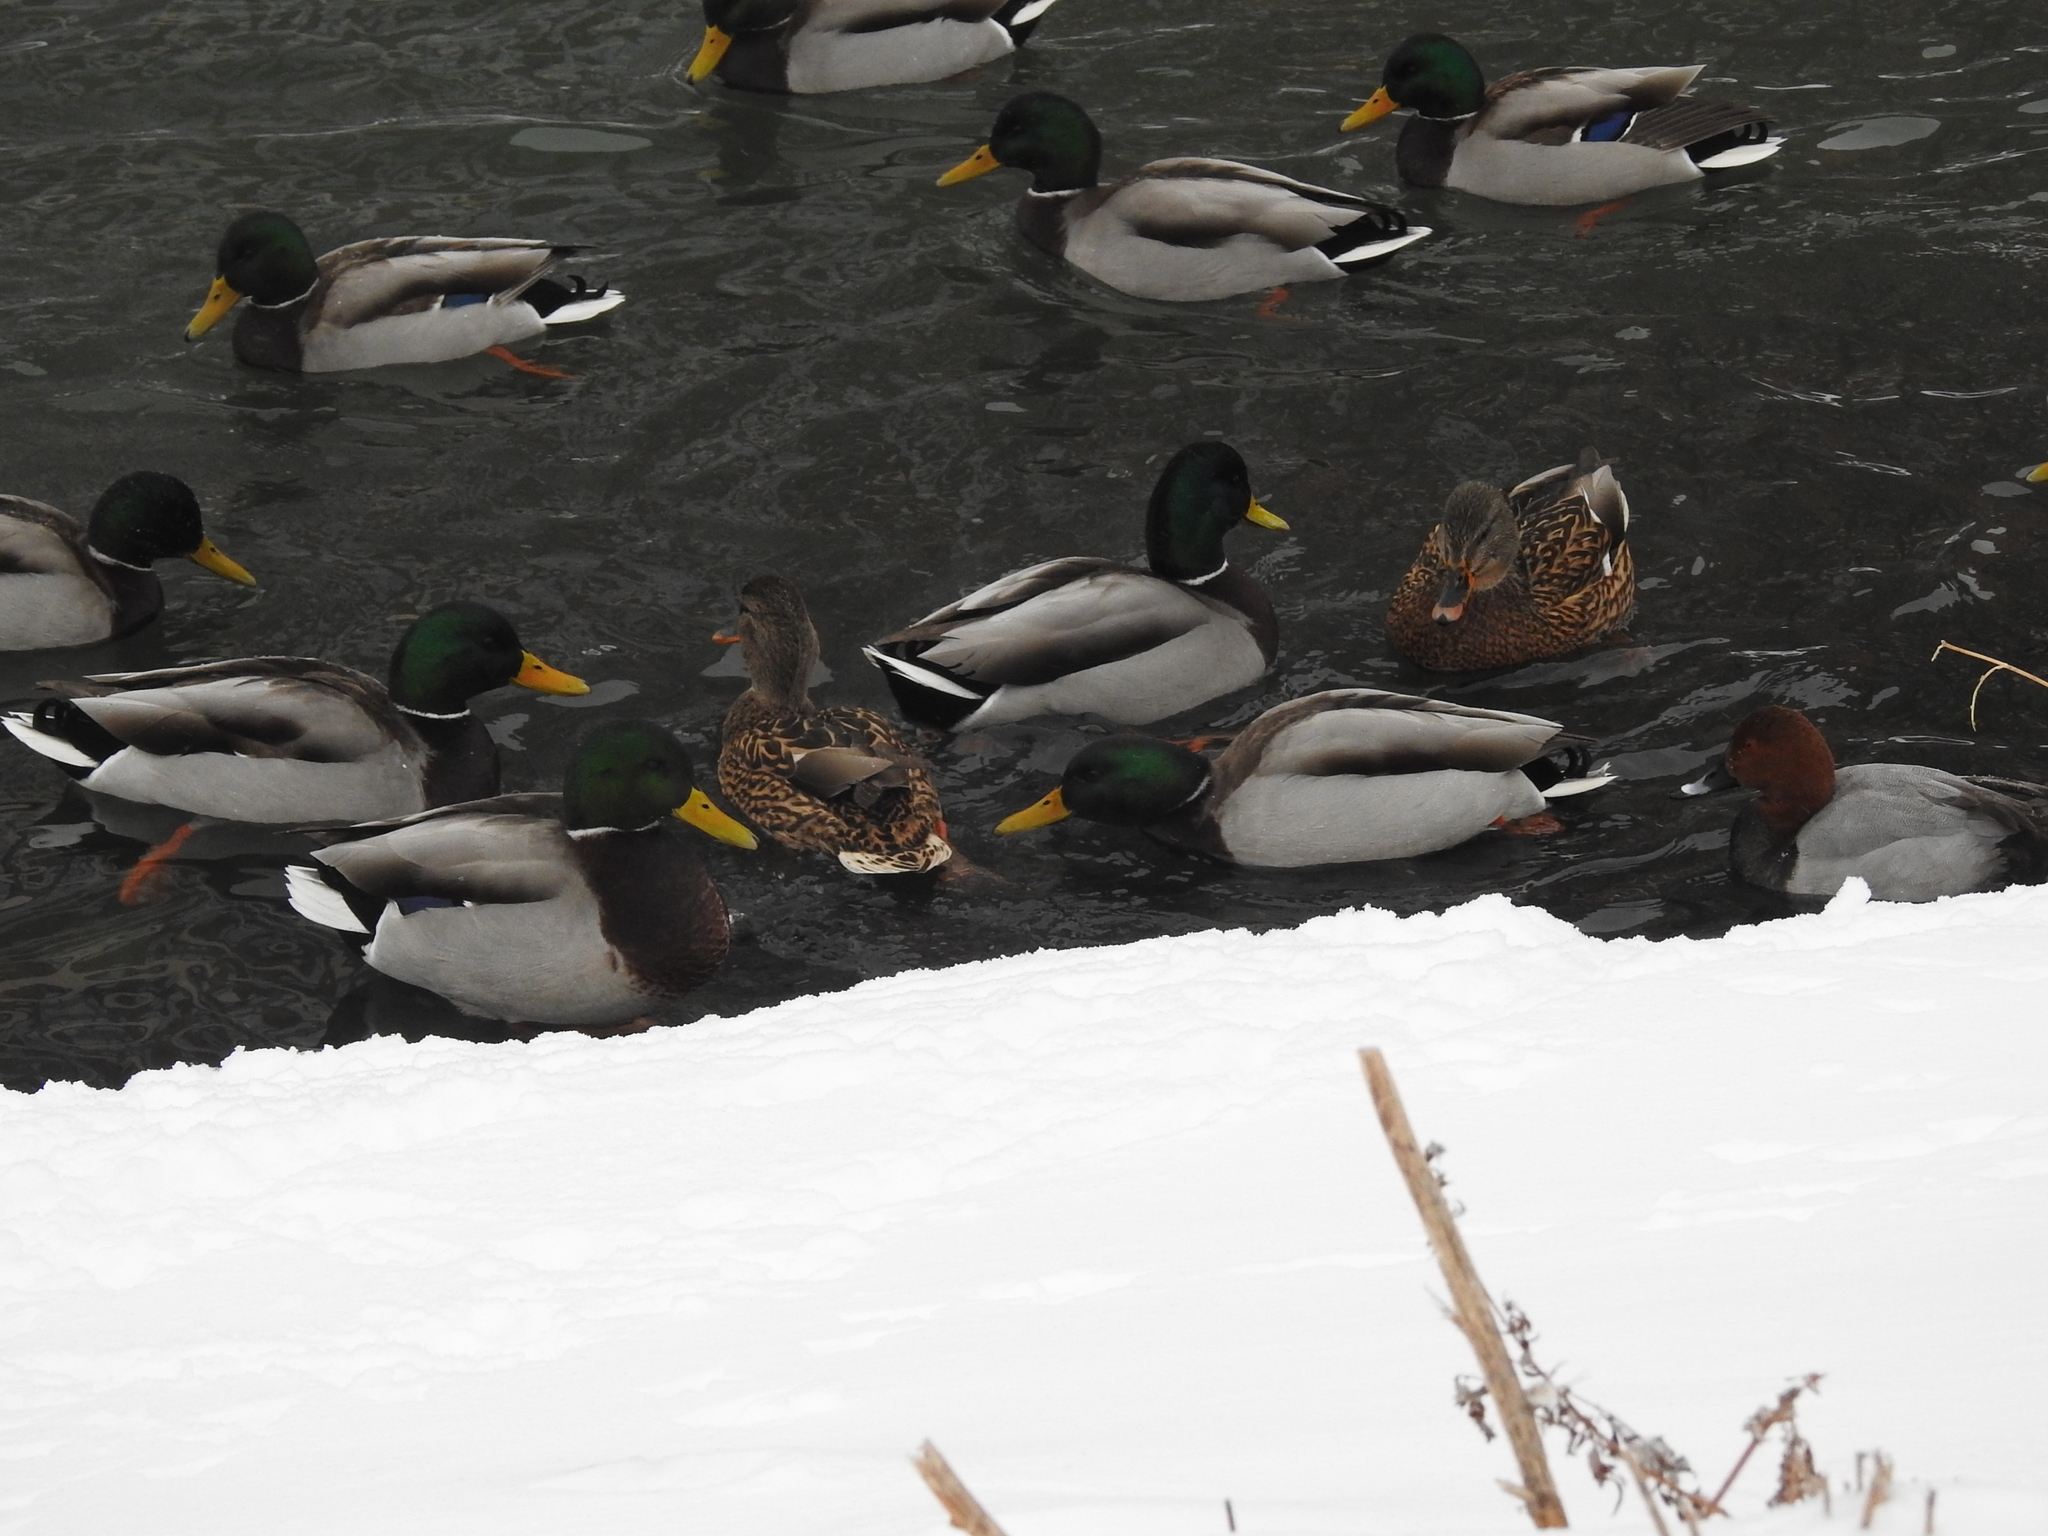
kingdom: Animalia
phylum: Chordata
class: Aves
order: Anseriformes
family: Anatidae
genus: Anas
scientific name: Anas platyrhynchos
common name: Mallard
